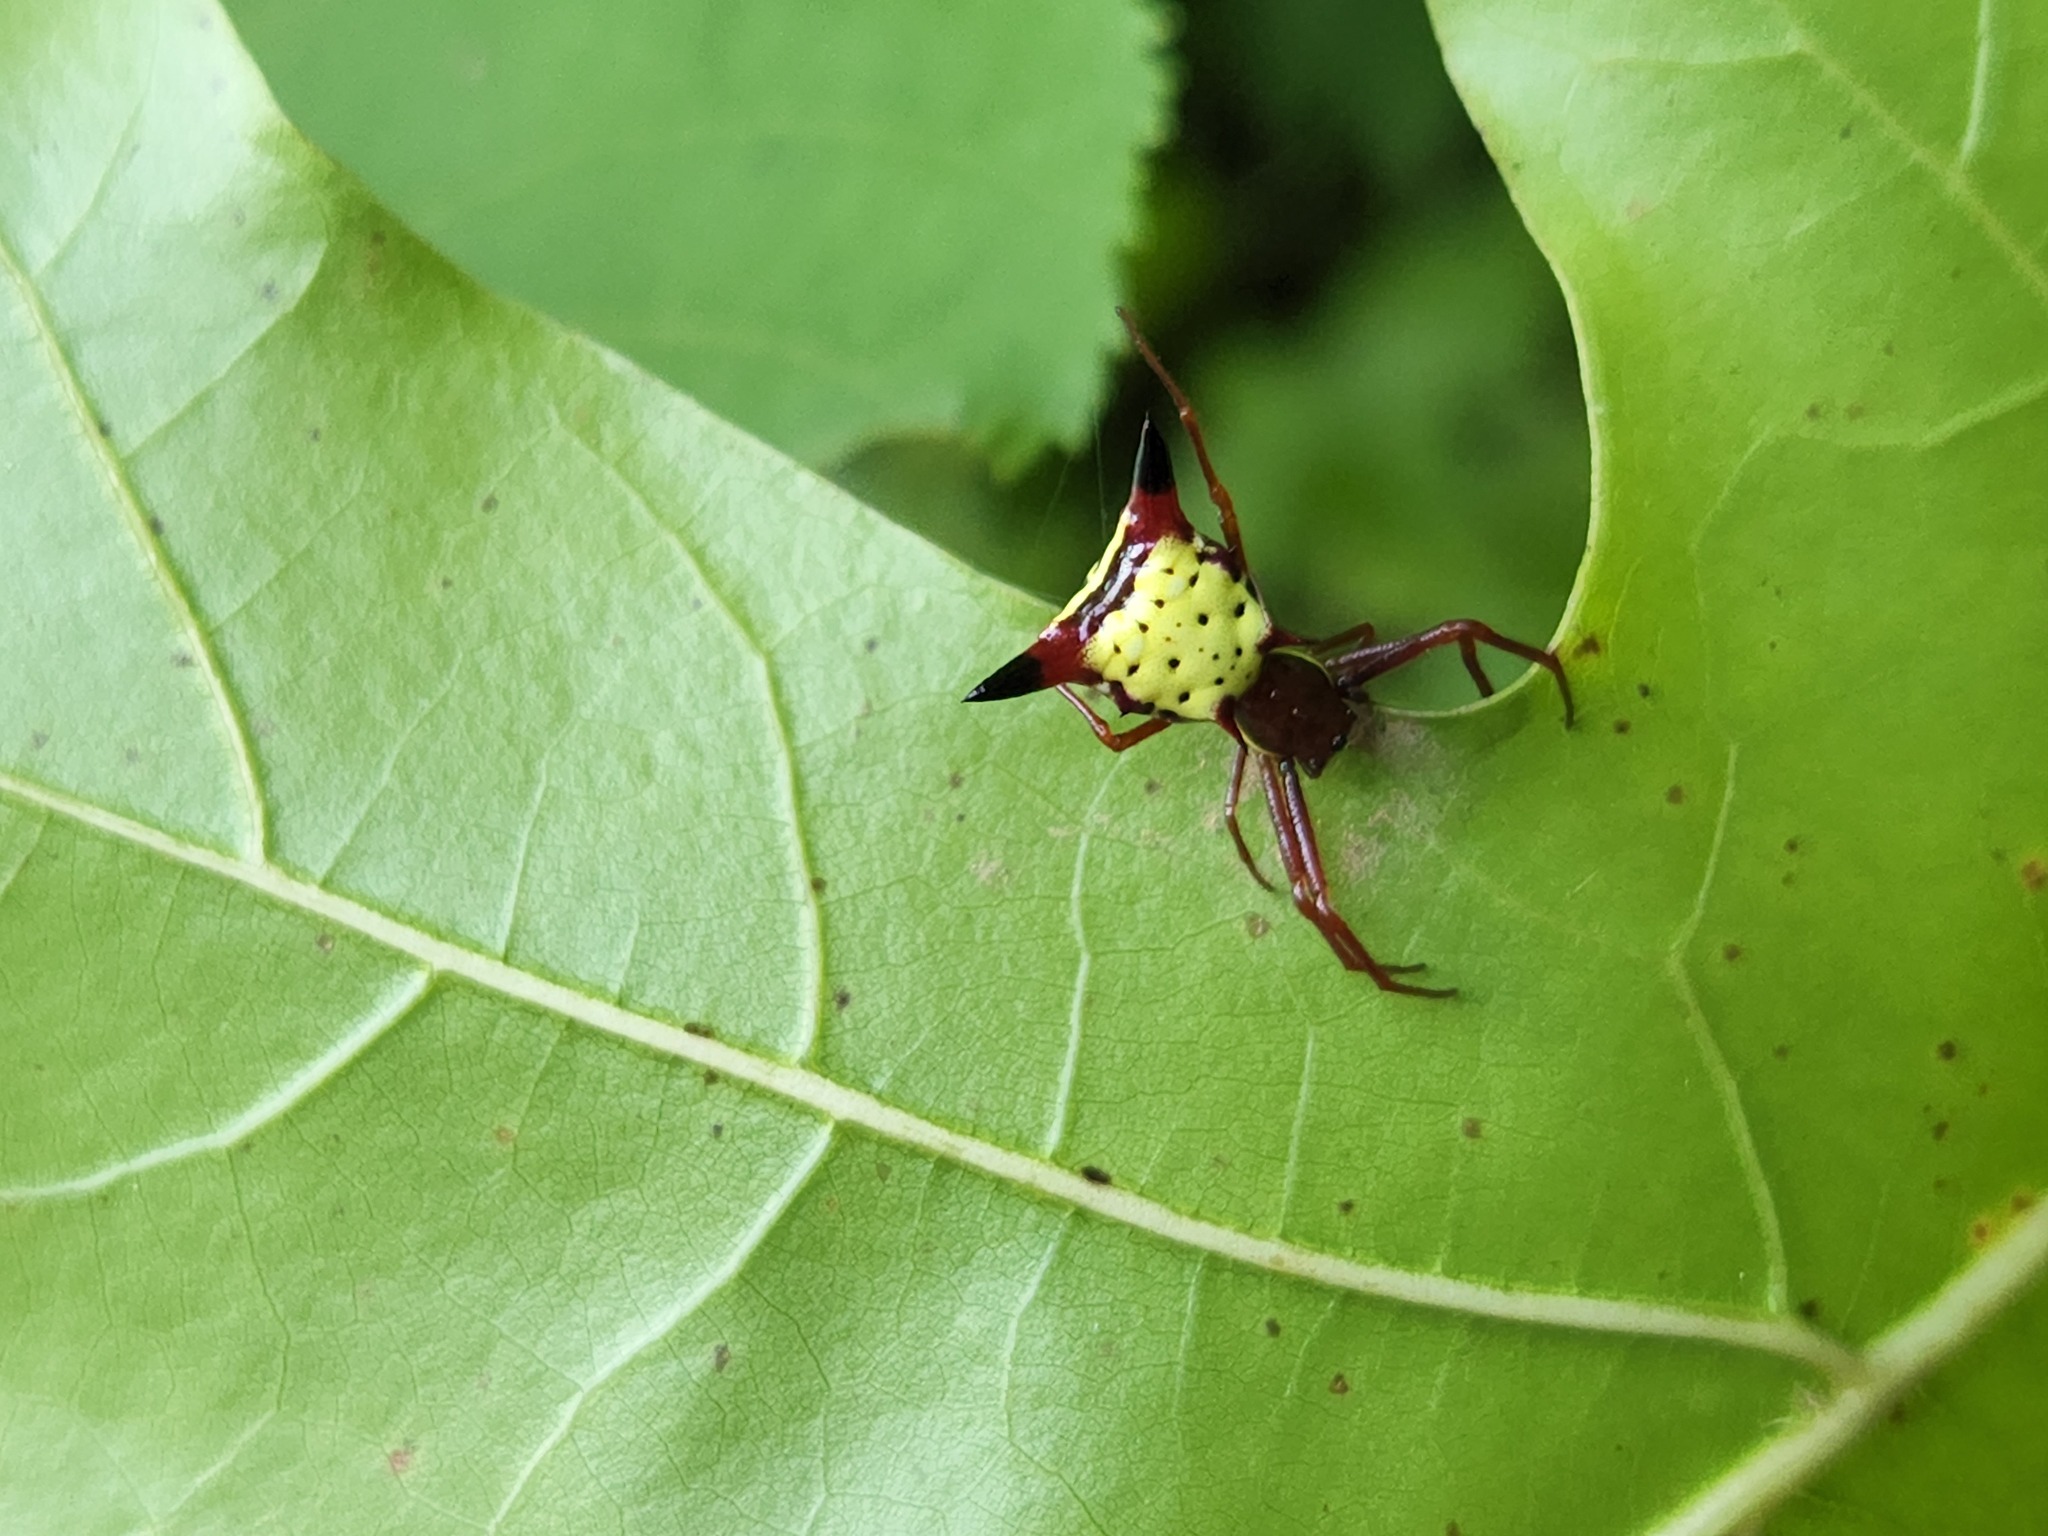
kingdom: Animalia
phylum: Arthropoda
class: Arachnida
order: Araneae
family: Araneidae
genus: Micrathena
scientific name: Micrathena sagittata
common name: Orb weavers
